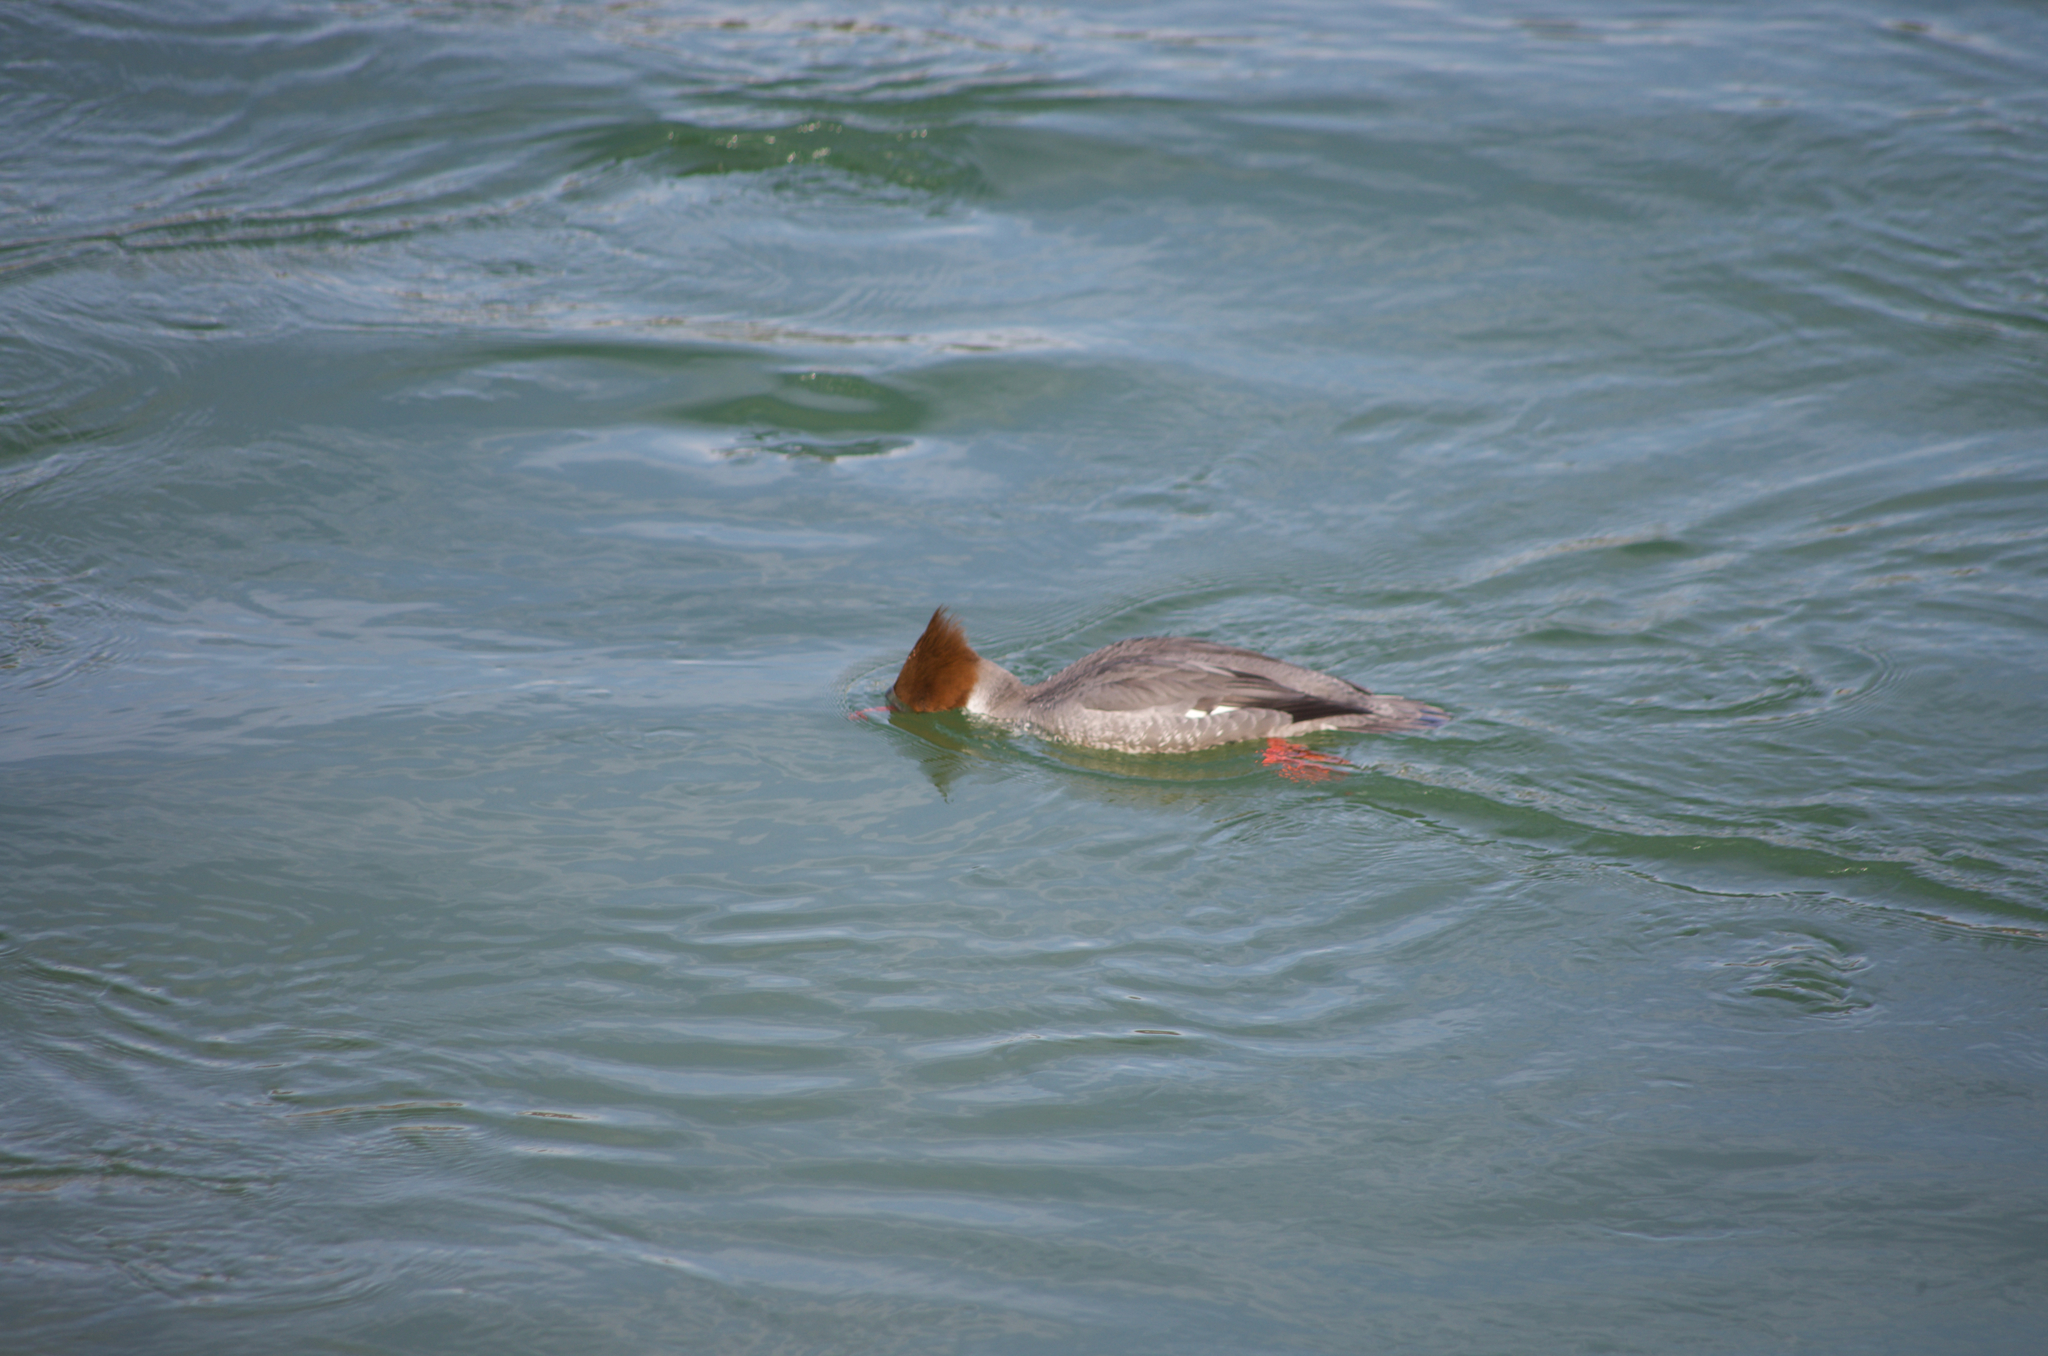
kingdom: Animalia
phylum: Chordata
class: Aves
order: Anseriformes
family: Anatidae
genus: Mergus
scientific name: Mergus merganser
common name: Common merganser
